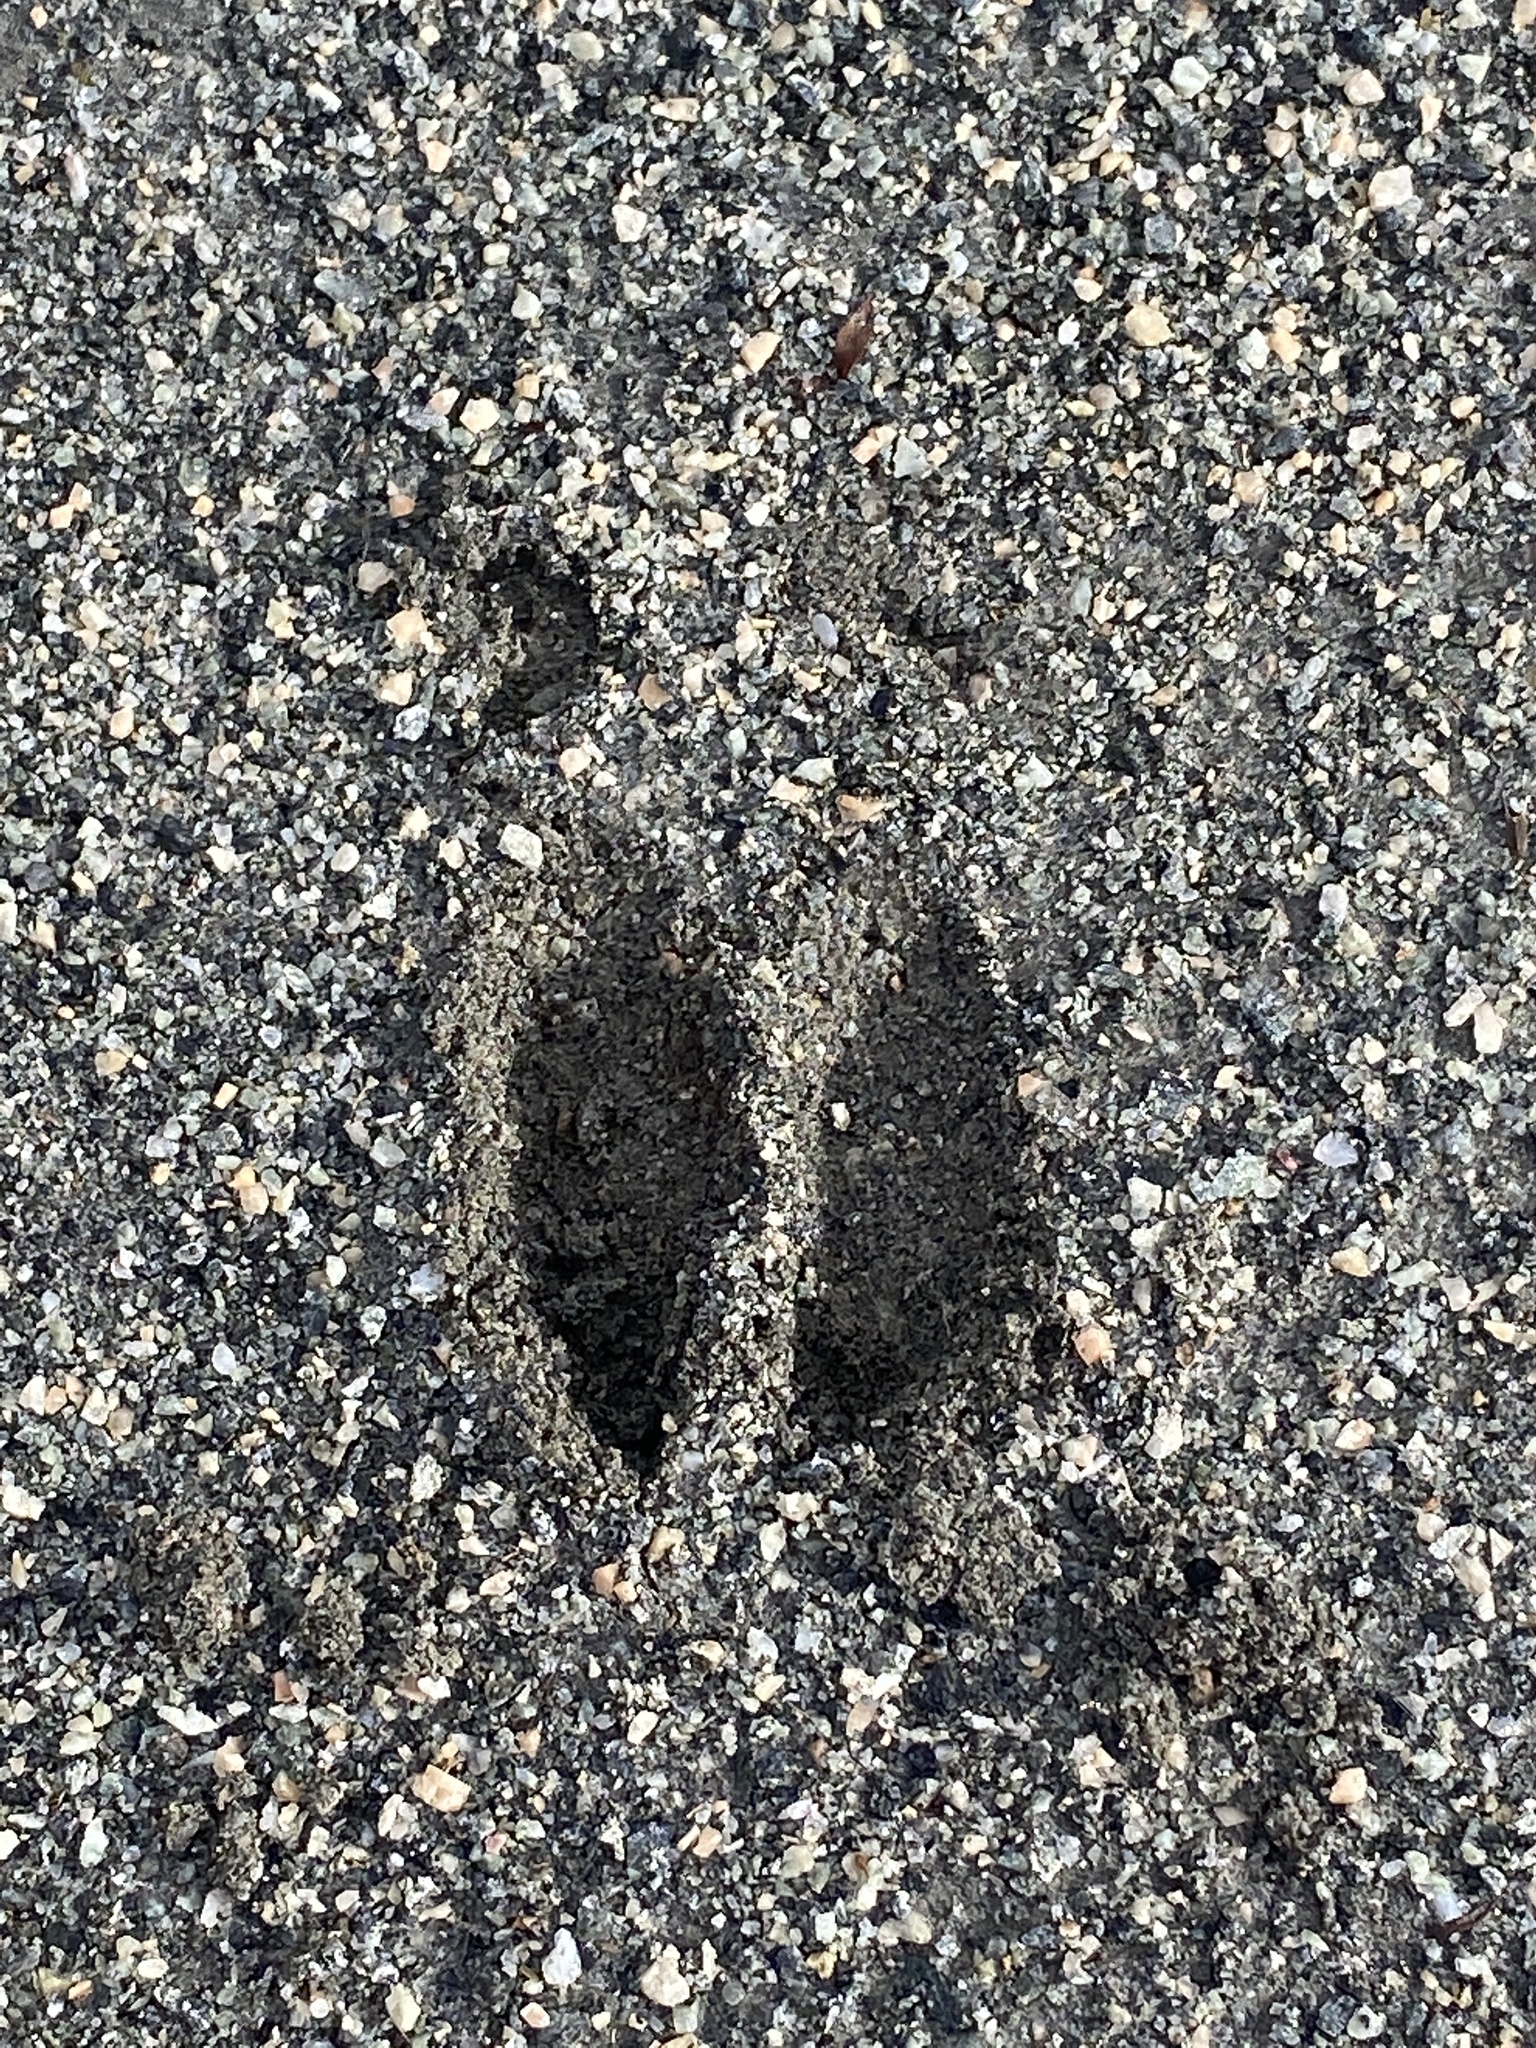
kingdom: Animalia
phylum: Chordata
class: Mammalia
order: Artiodactyla
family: Cervidae
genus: Odocoileus
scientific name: Odocoileus virginianus
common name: White-tailed deer
